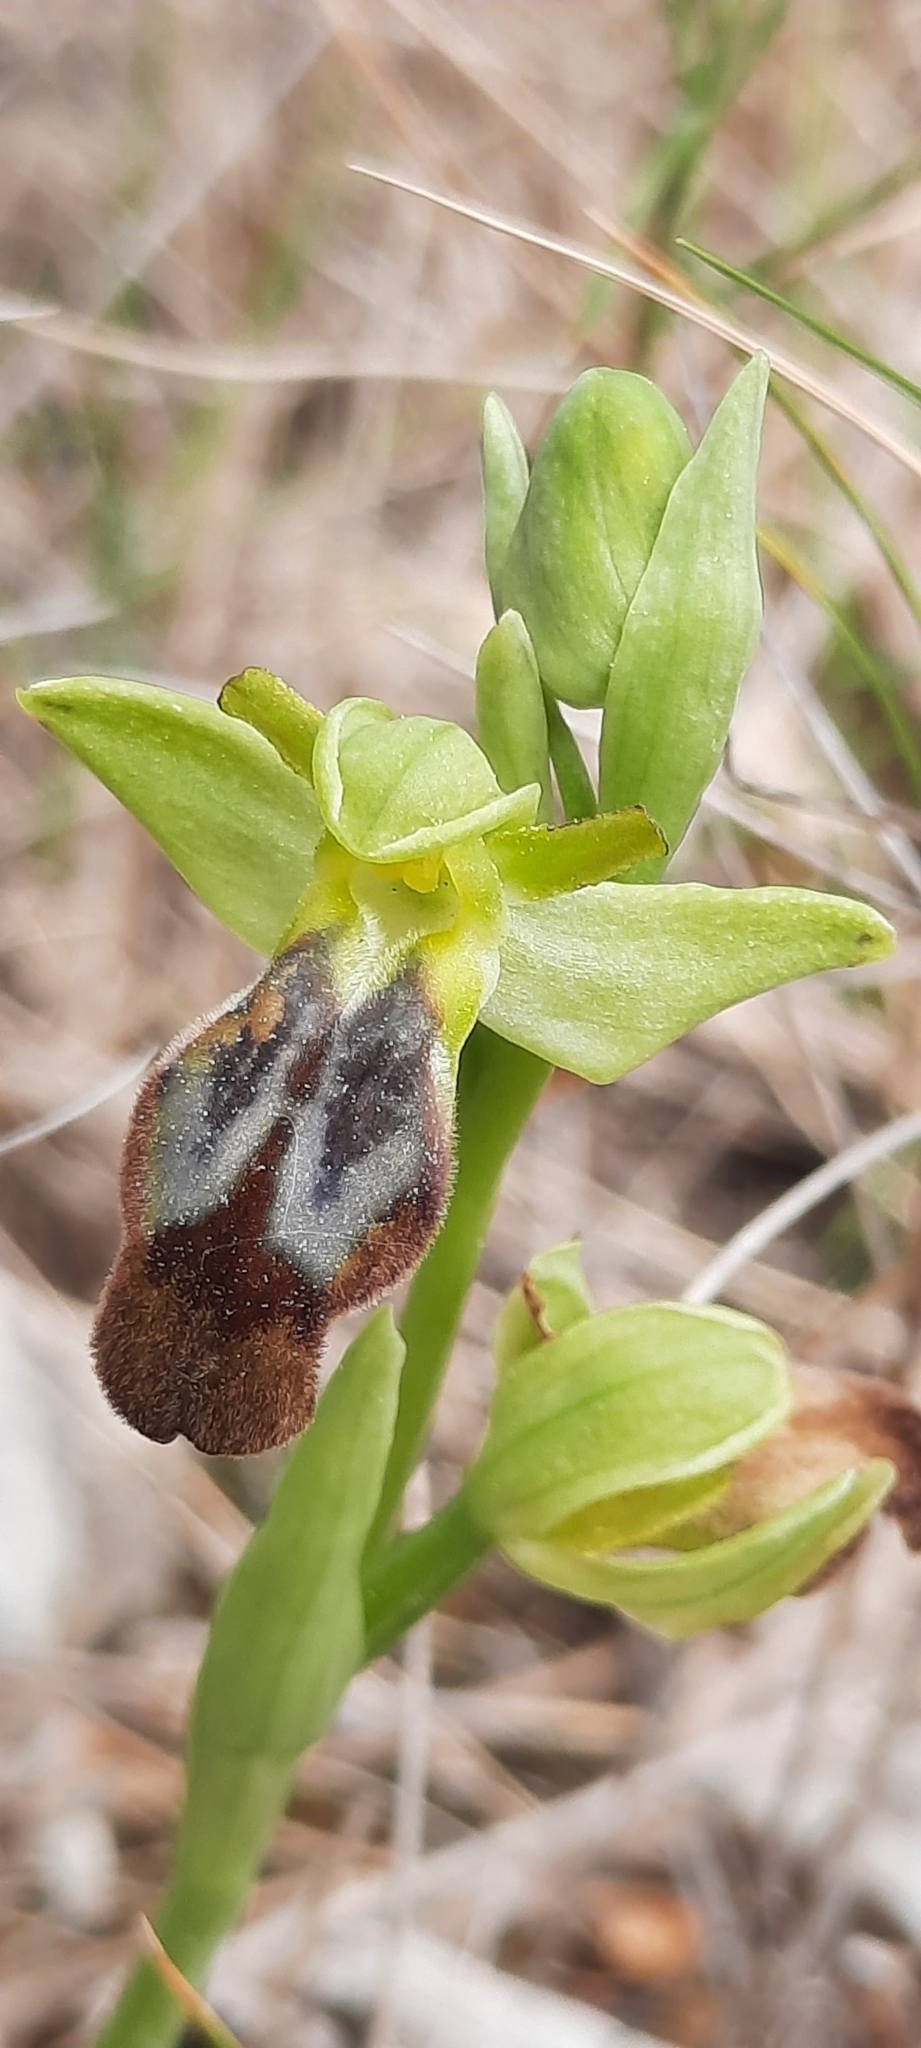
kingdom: Plantae
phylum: Tracheophyta
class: Liliopsida
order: Asparagales
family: Orchidaceae
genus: Ophrys
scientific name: Ophrys fusca
